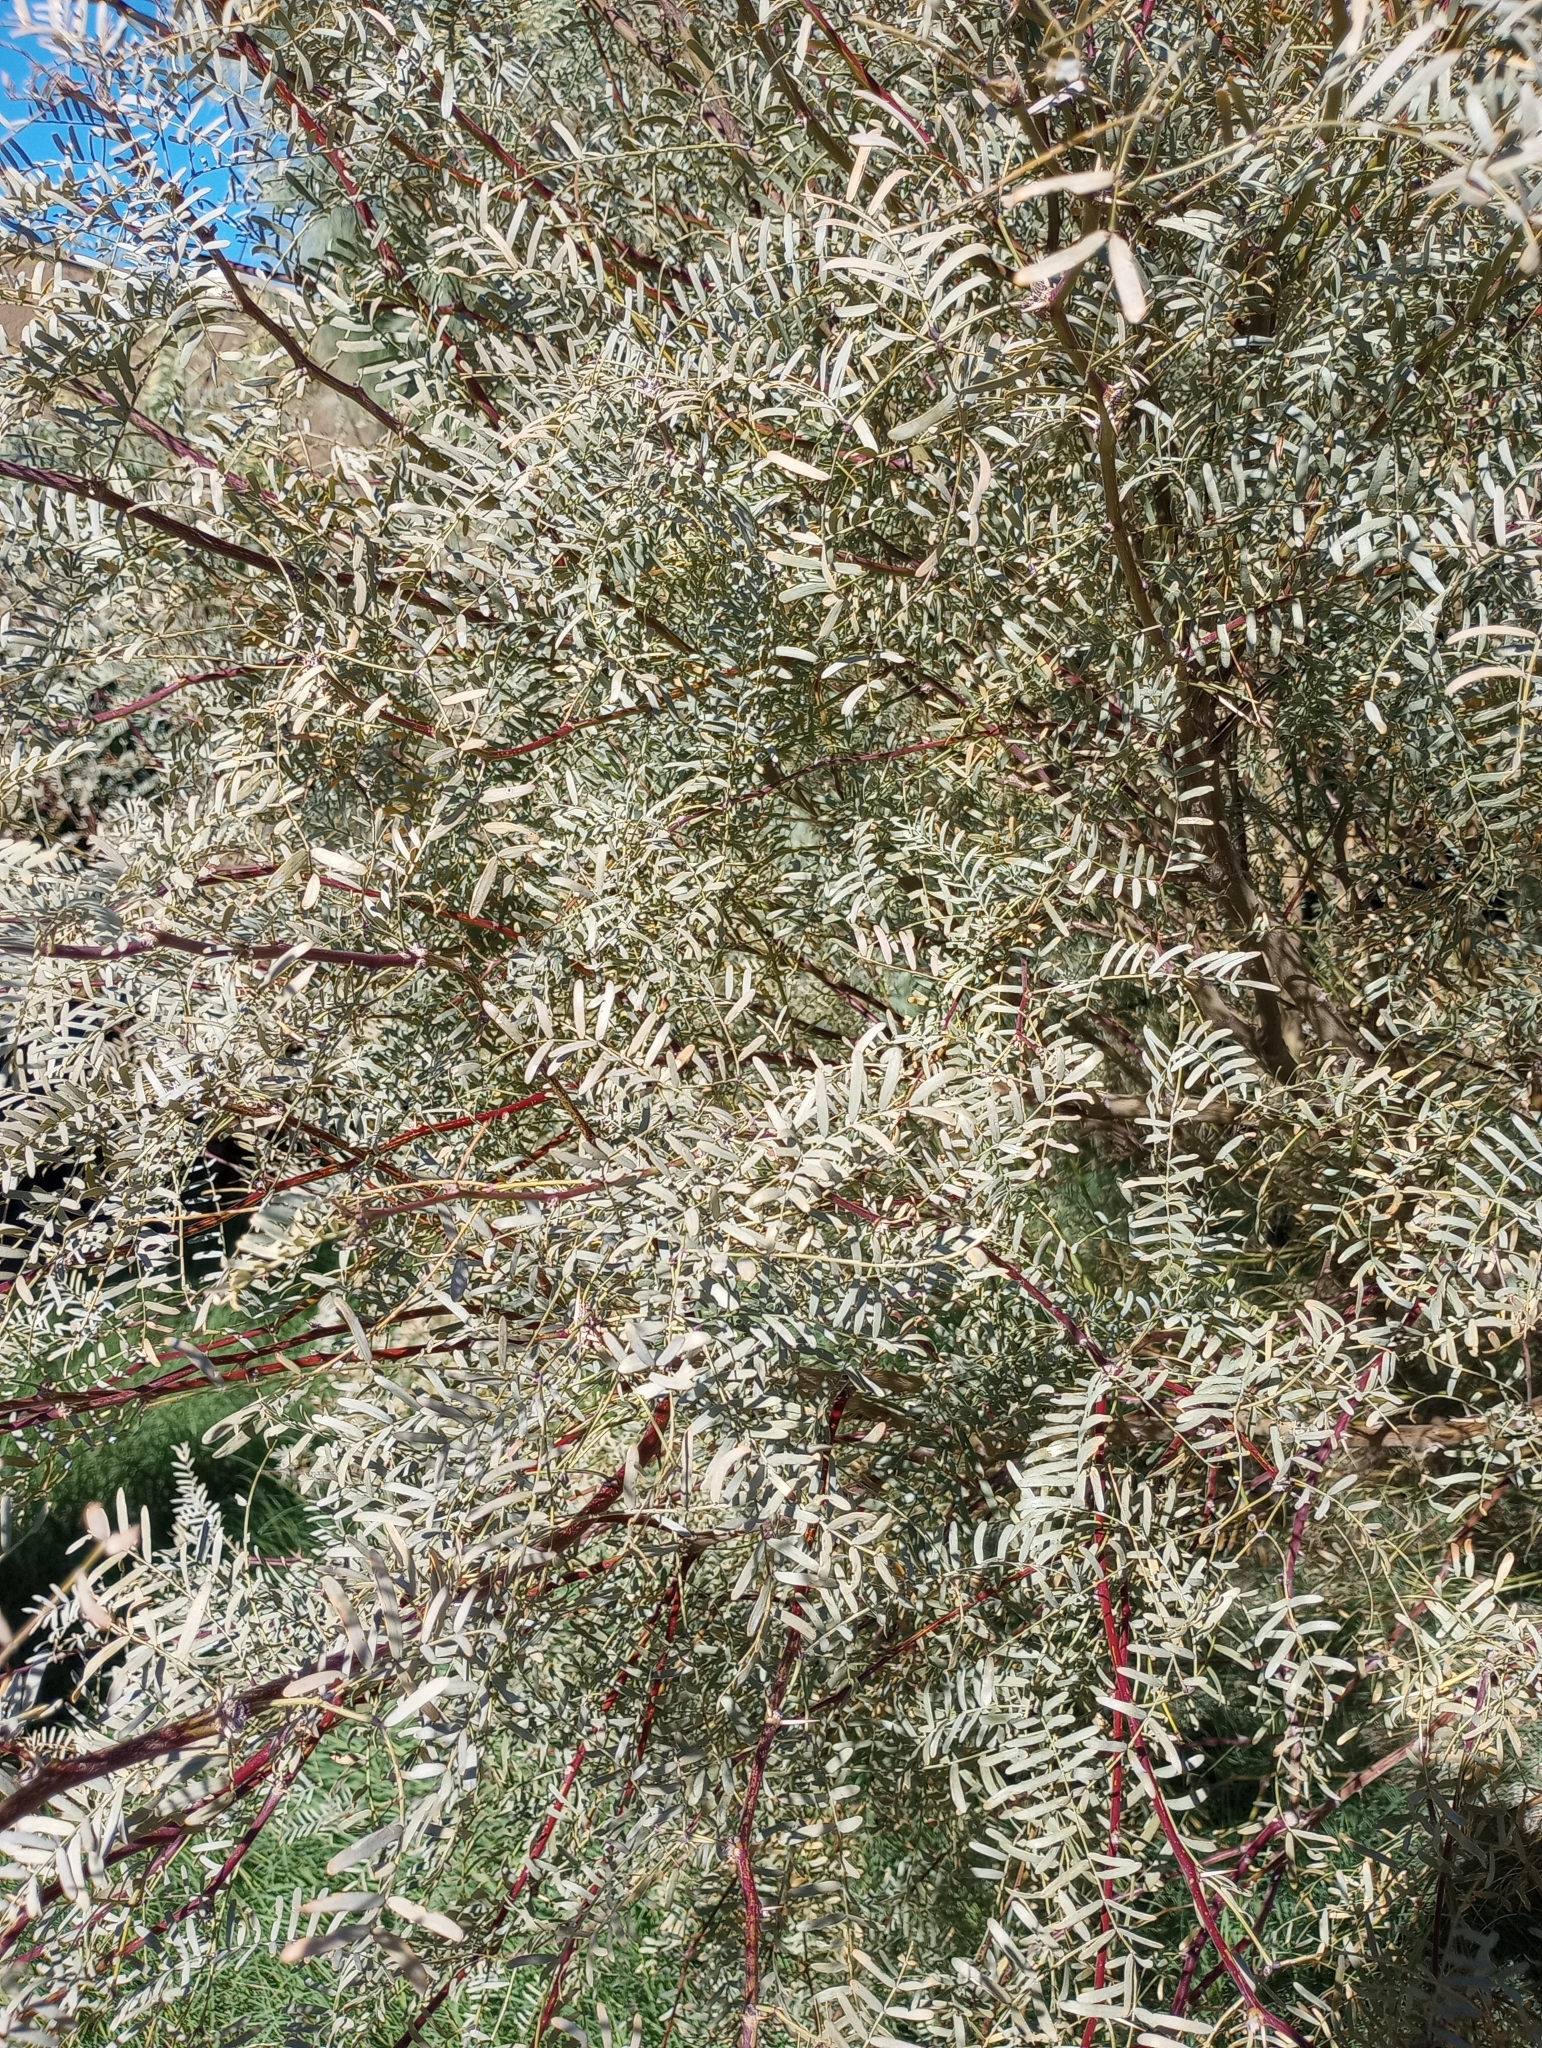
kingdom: Plantae
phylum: Tracheophyta
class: Magnoliopsida
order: Fabales
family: Fabaceae
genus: Prosopis
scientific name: Prosopis pubescens
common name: Screw-bean
